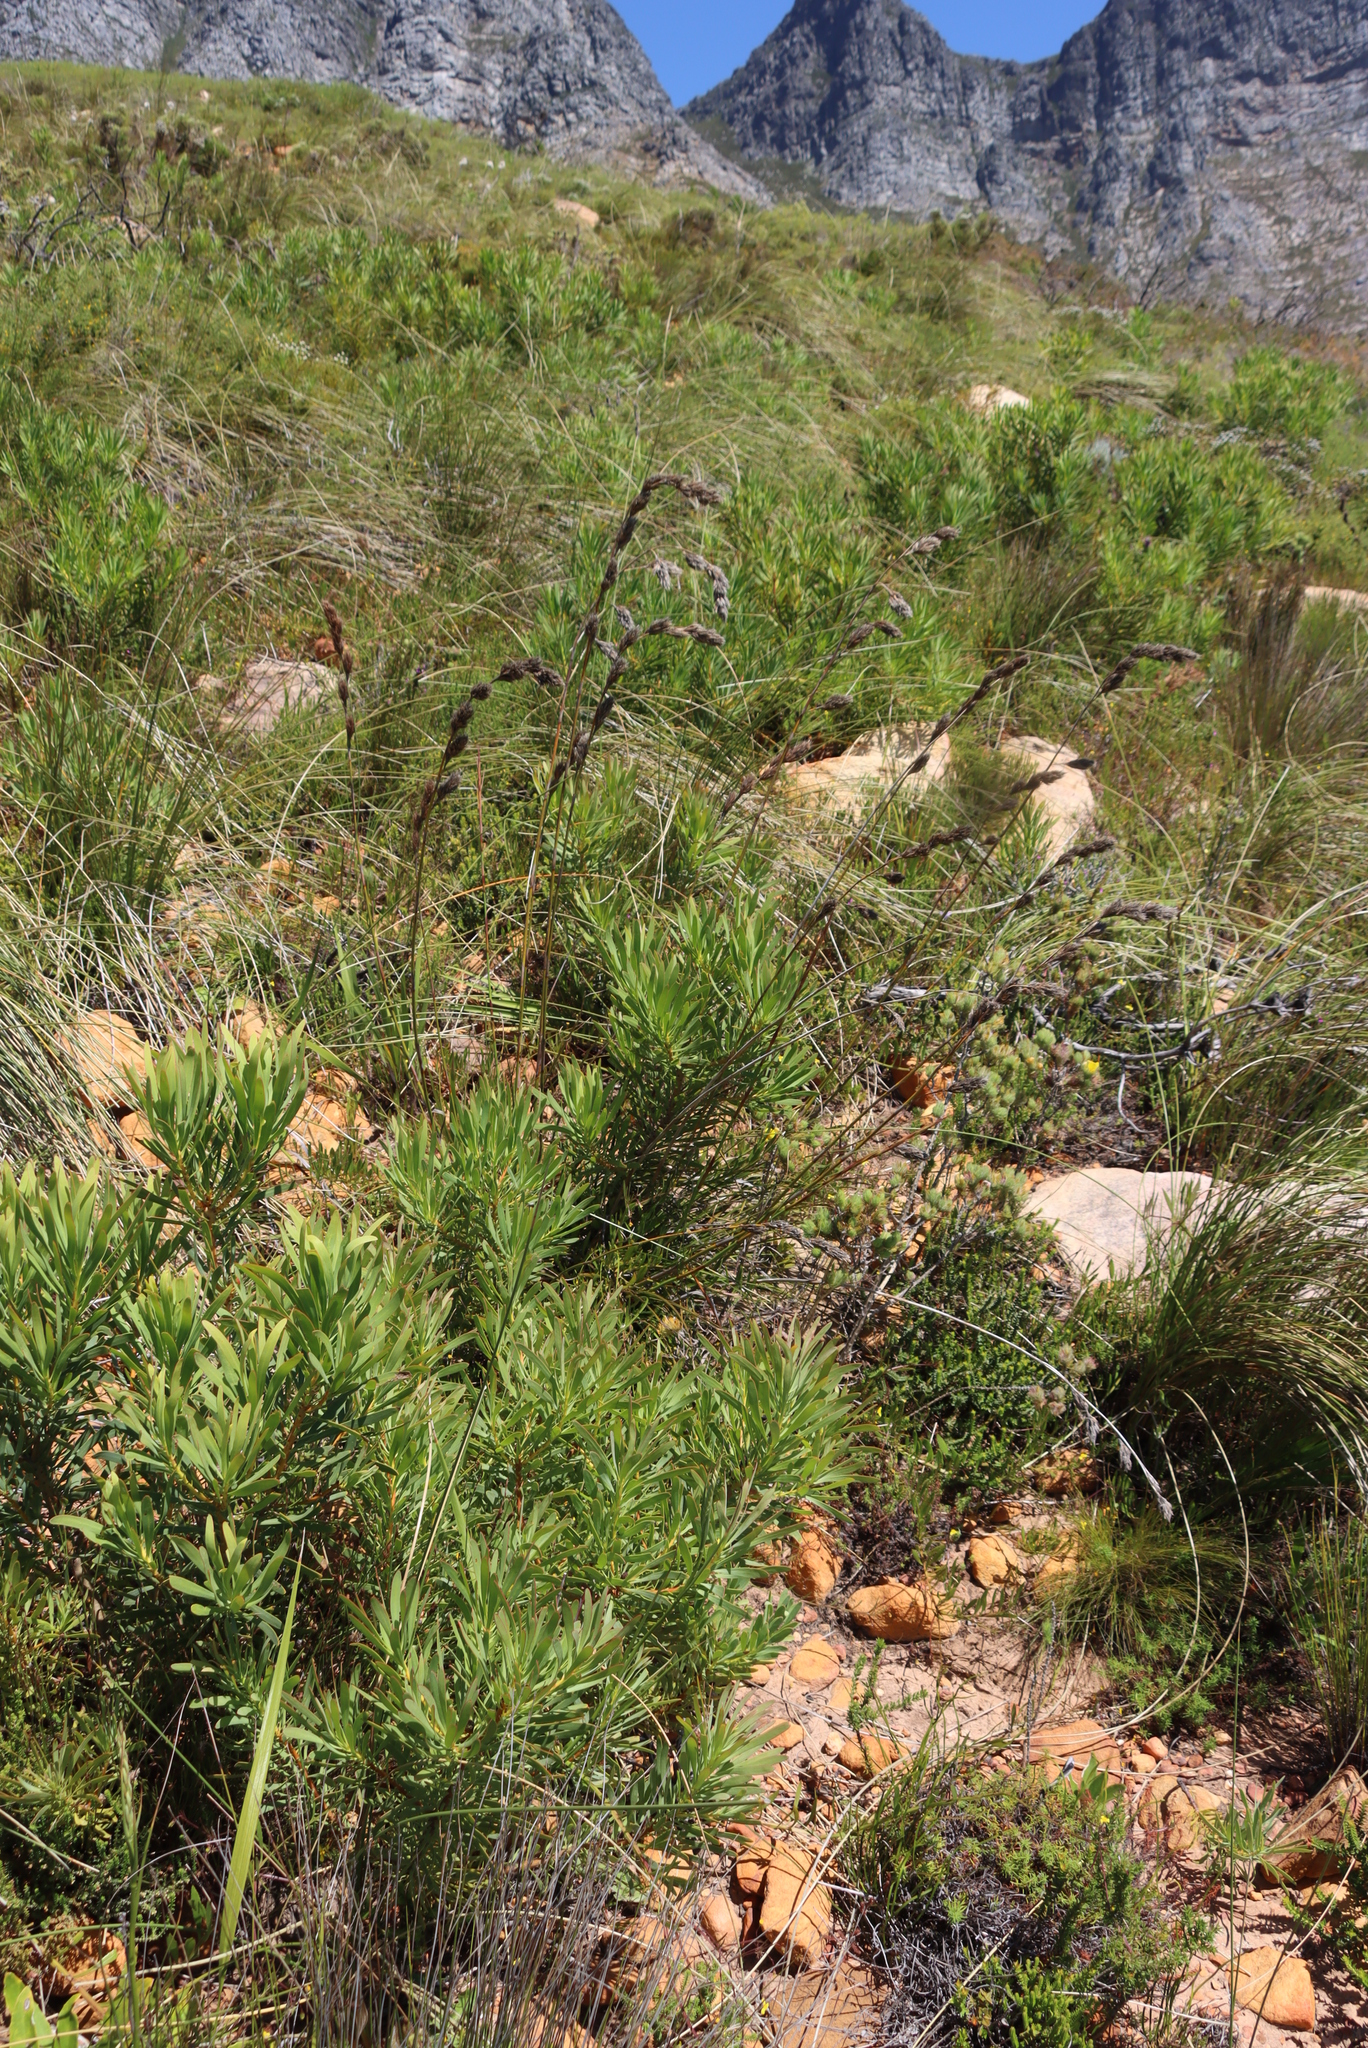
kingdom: Plantae
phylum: Tracheophyta
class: Magnoliopsida
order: Proteales
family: Proteaceae
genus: Protea
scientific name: Protea repens
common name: Sugarbush
